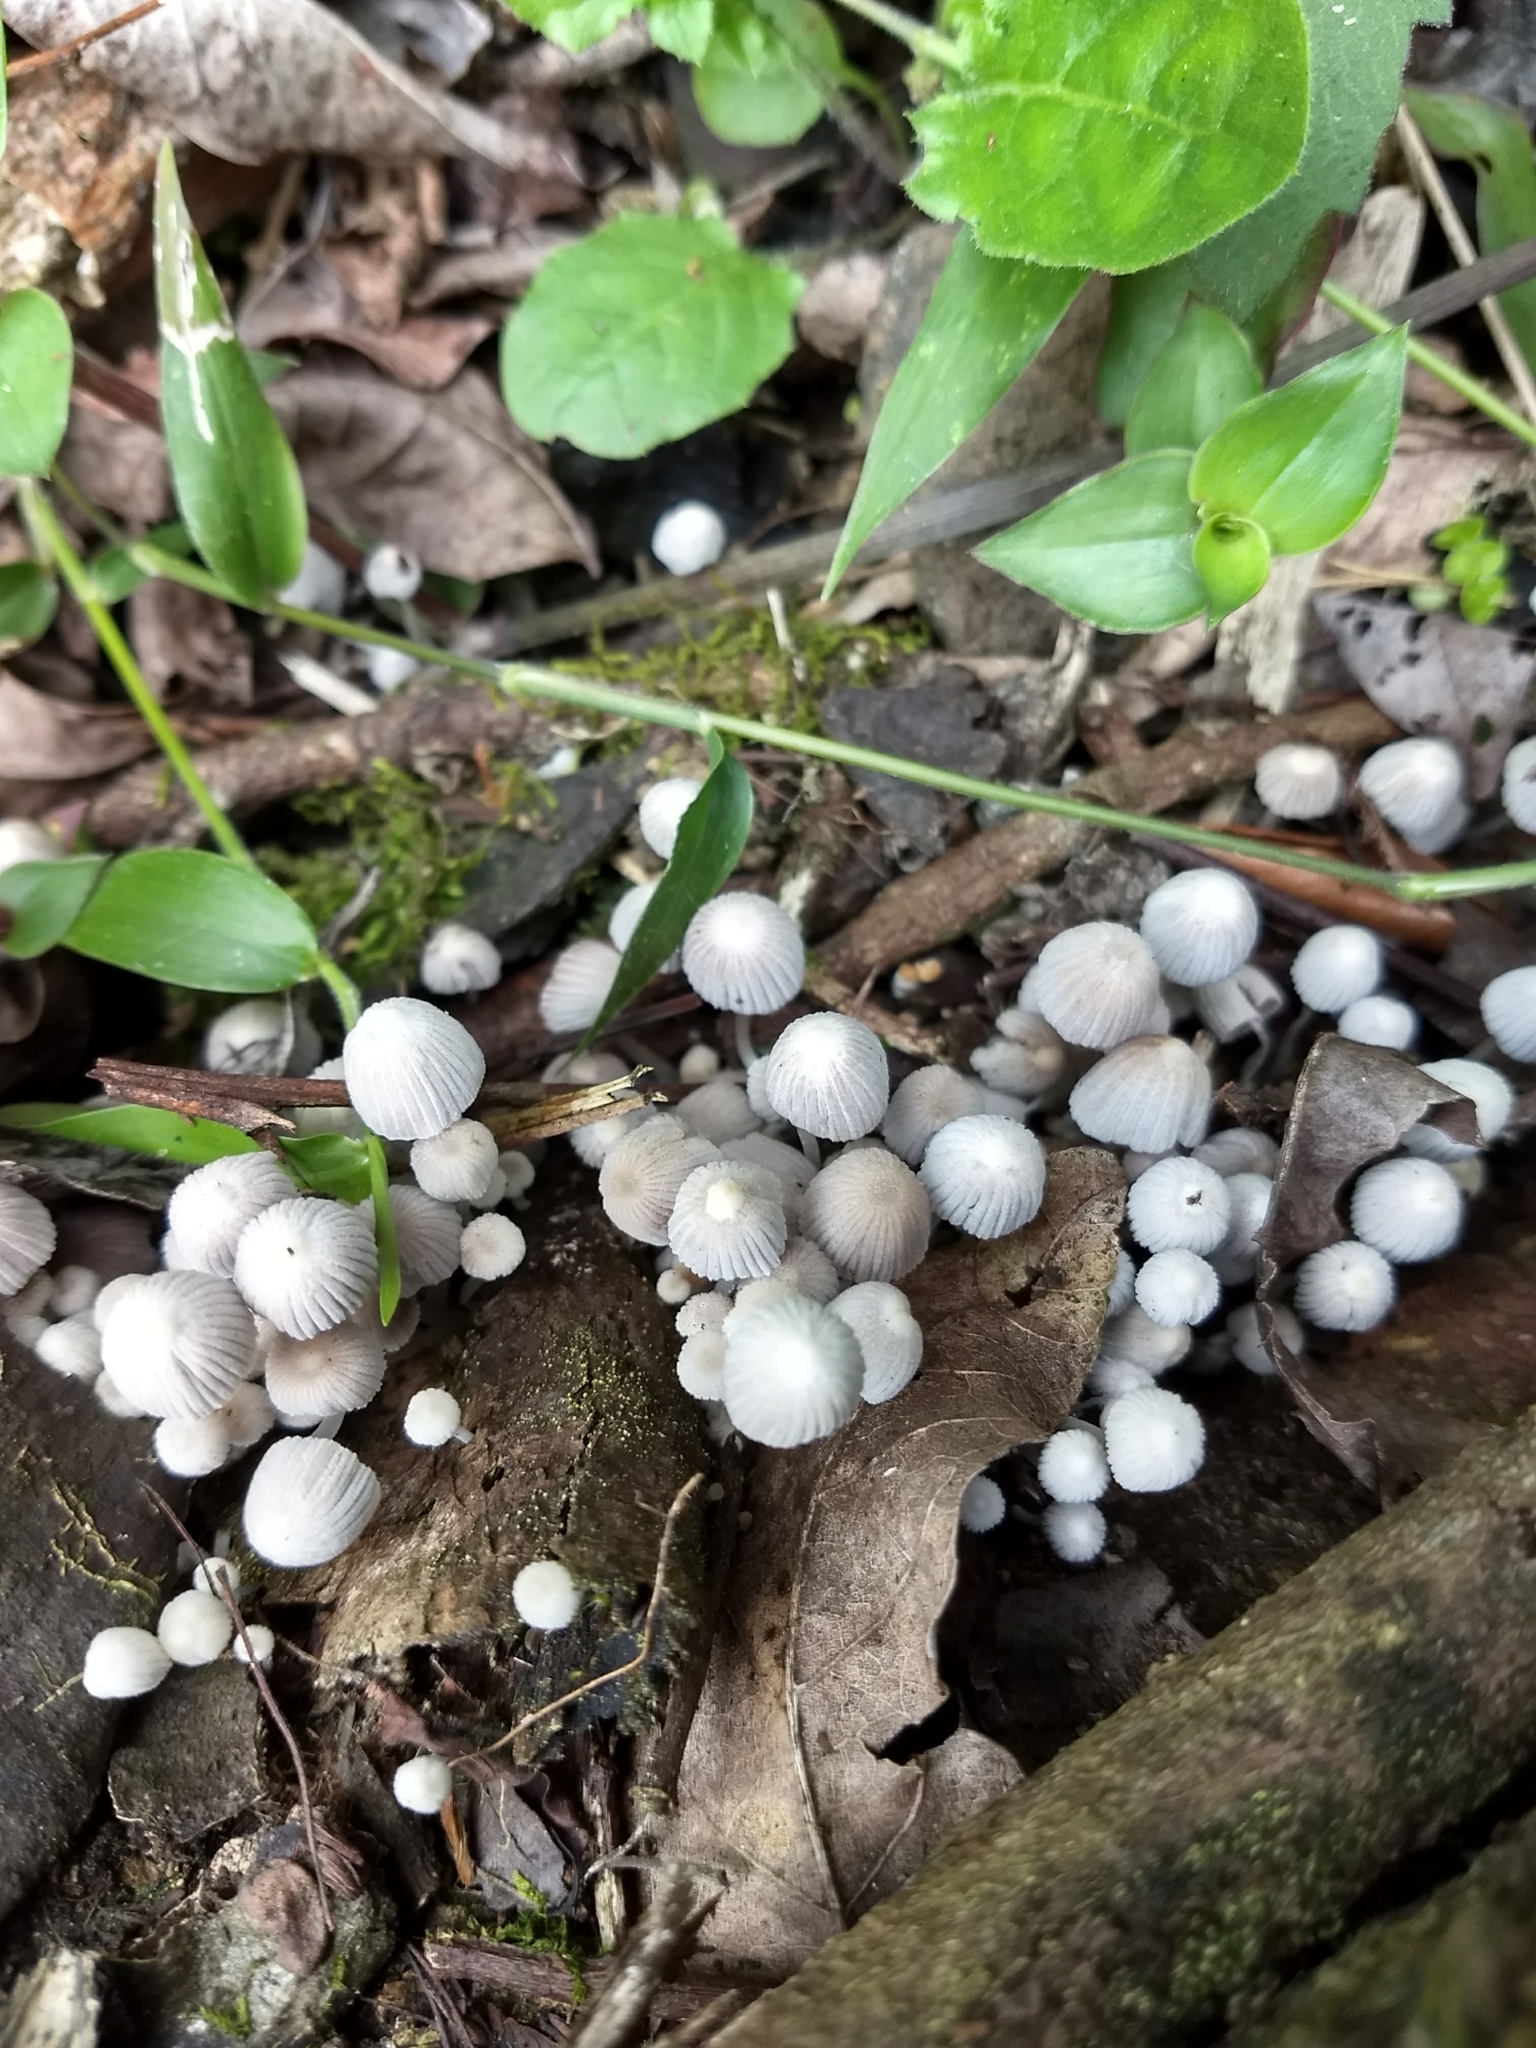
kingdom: Fungi
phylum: Basidiomycota
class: Agaricomycetes
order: Agaricales
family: Psathyrellaceae
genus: Coprinellus
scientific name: Coprinellus disseminatus
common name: Fairies' bonnets
